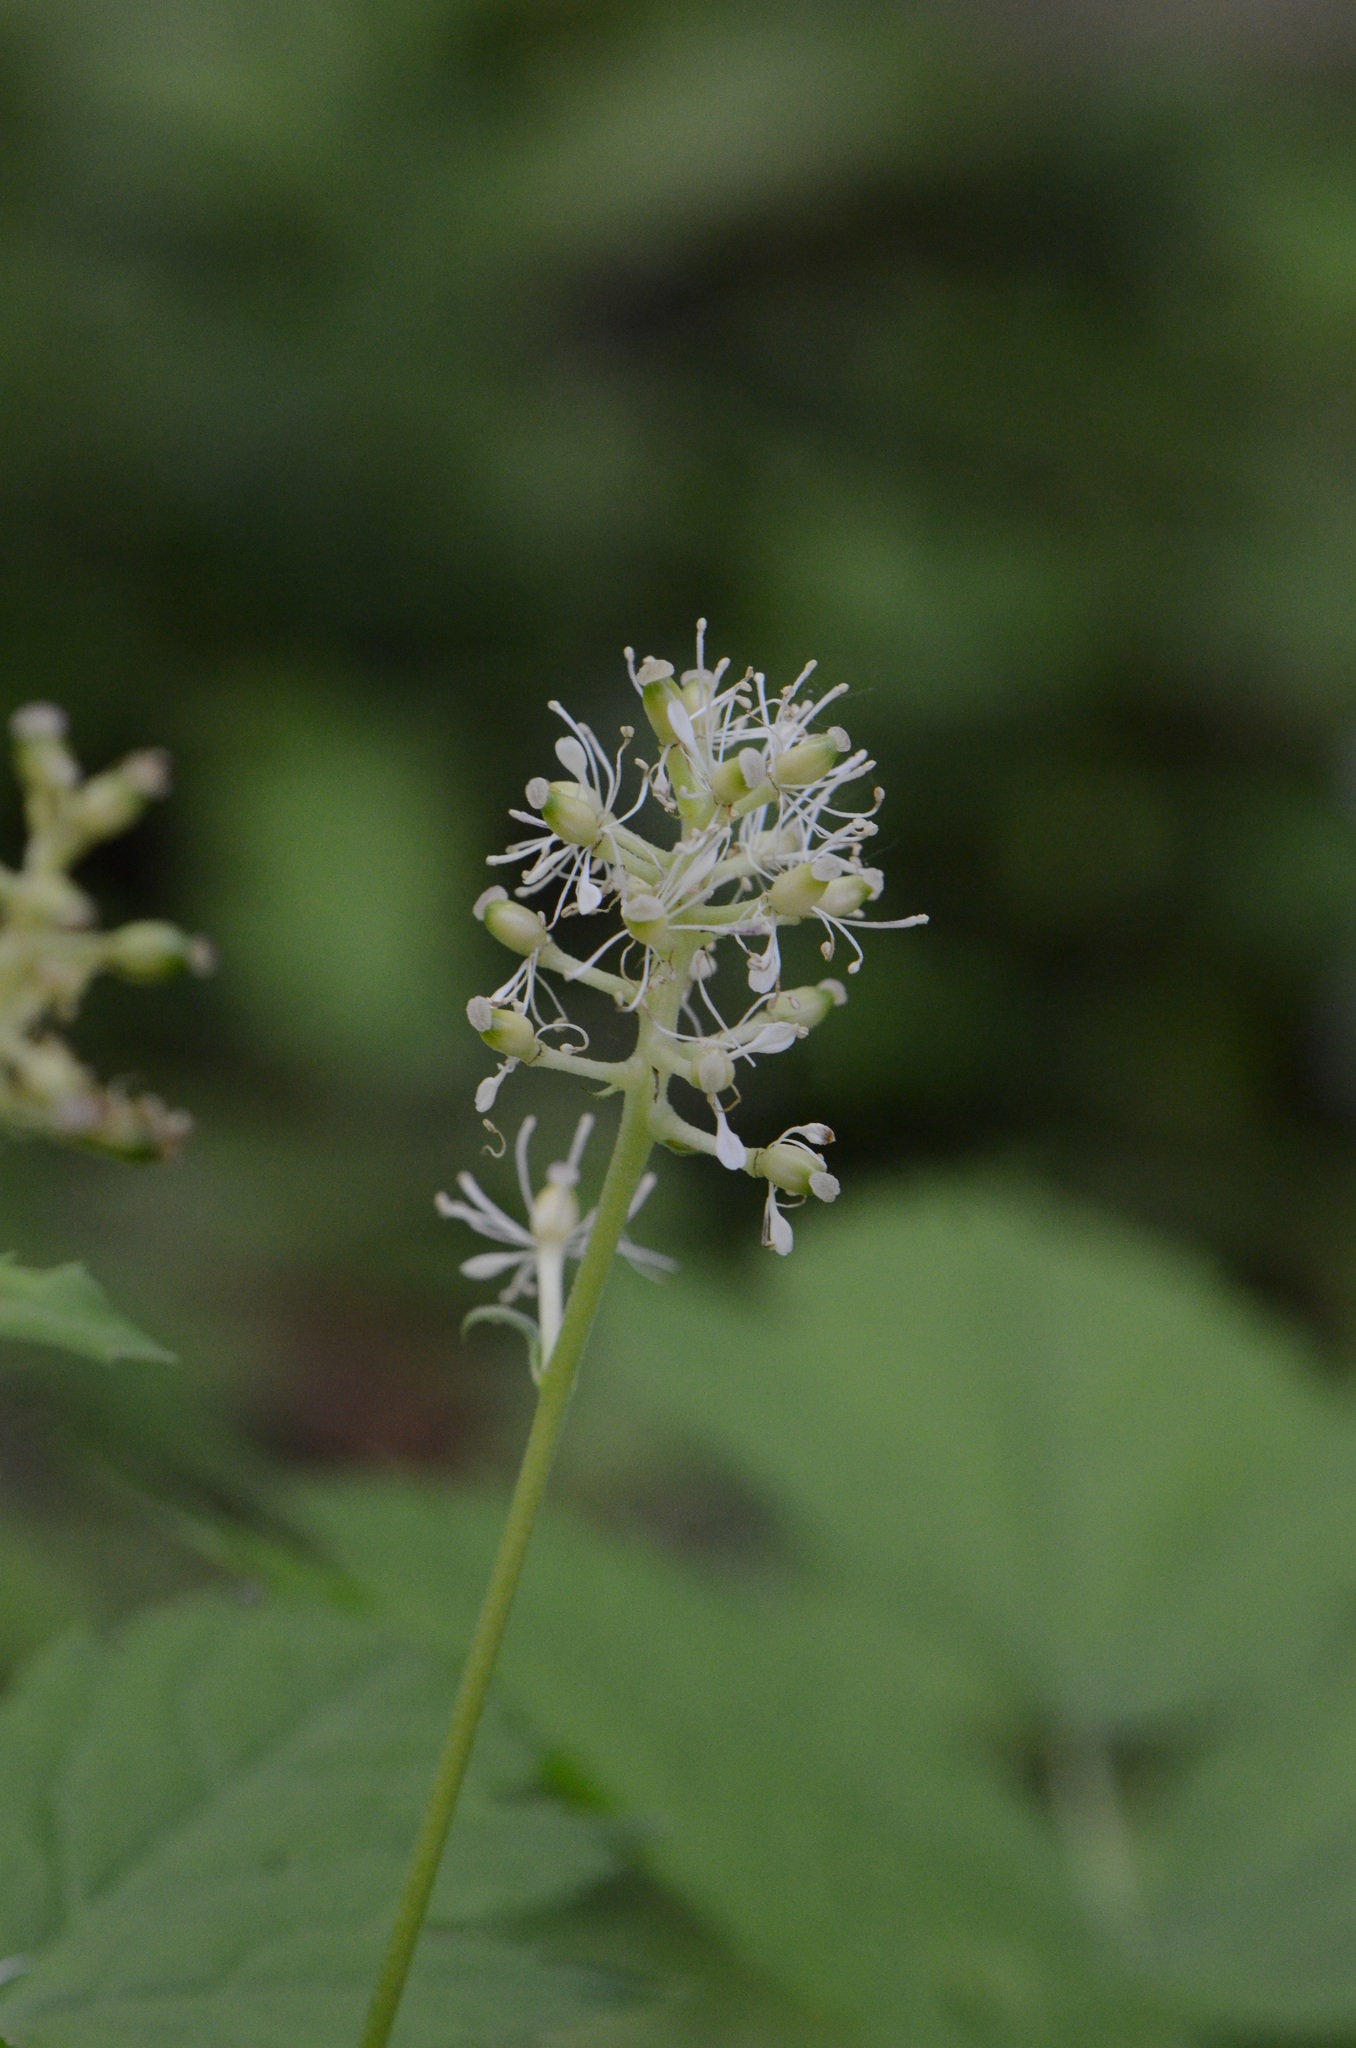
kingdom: Plantae
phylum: Tracheophyta
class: Magnoliopsida
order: Ranunculales
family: Ranunculaceae
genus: Actaea
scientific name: Actaea spicata
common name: Baneberry
